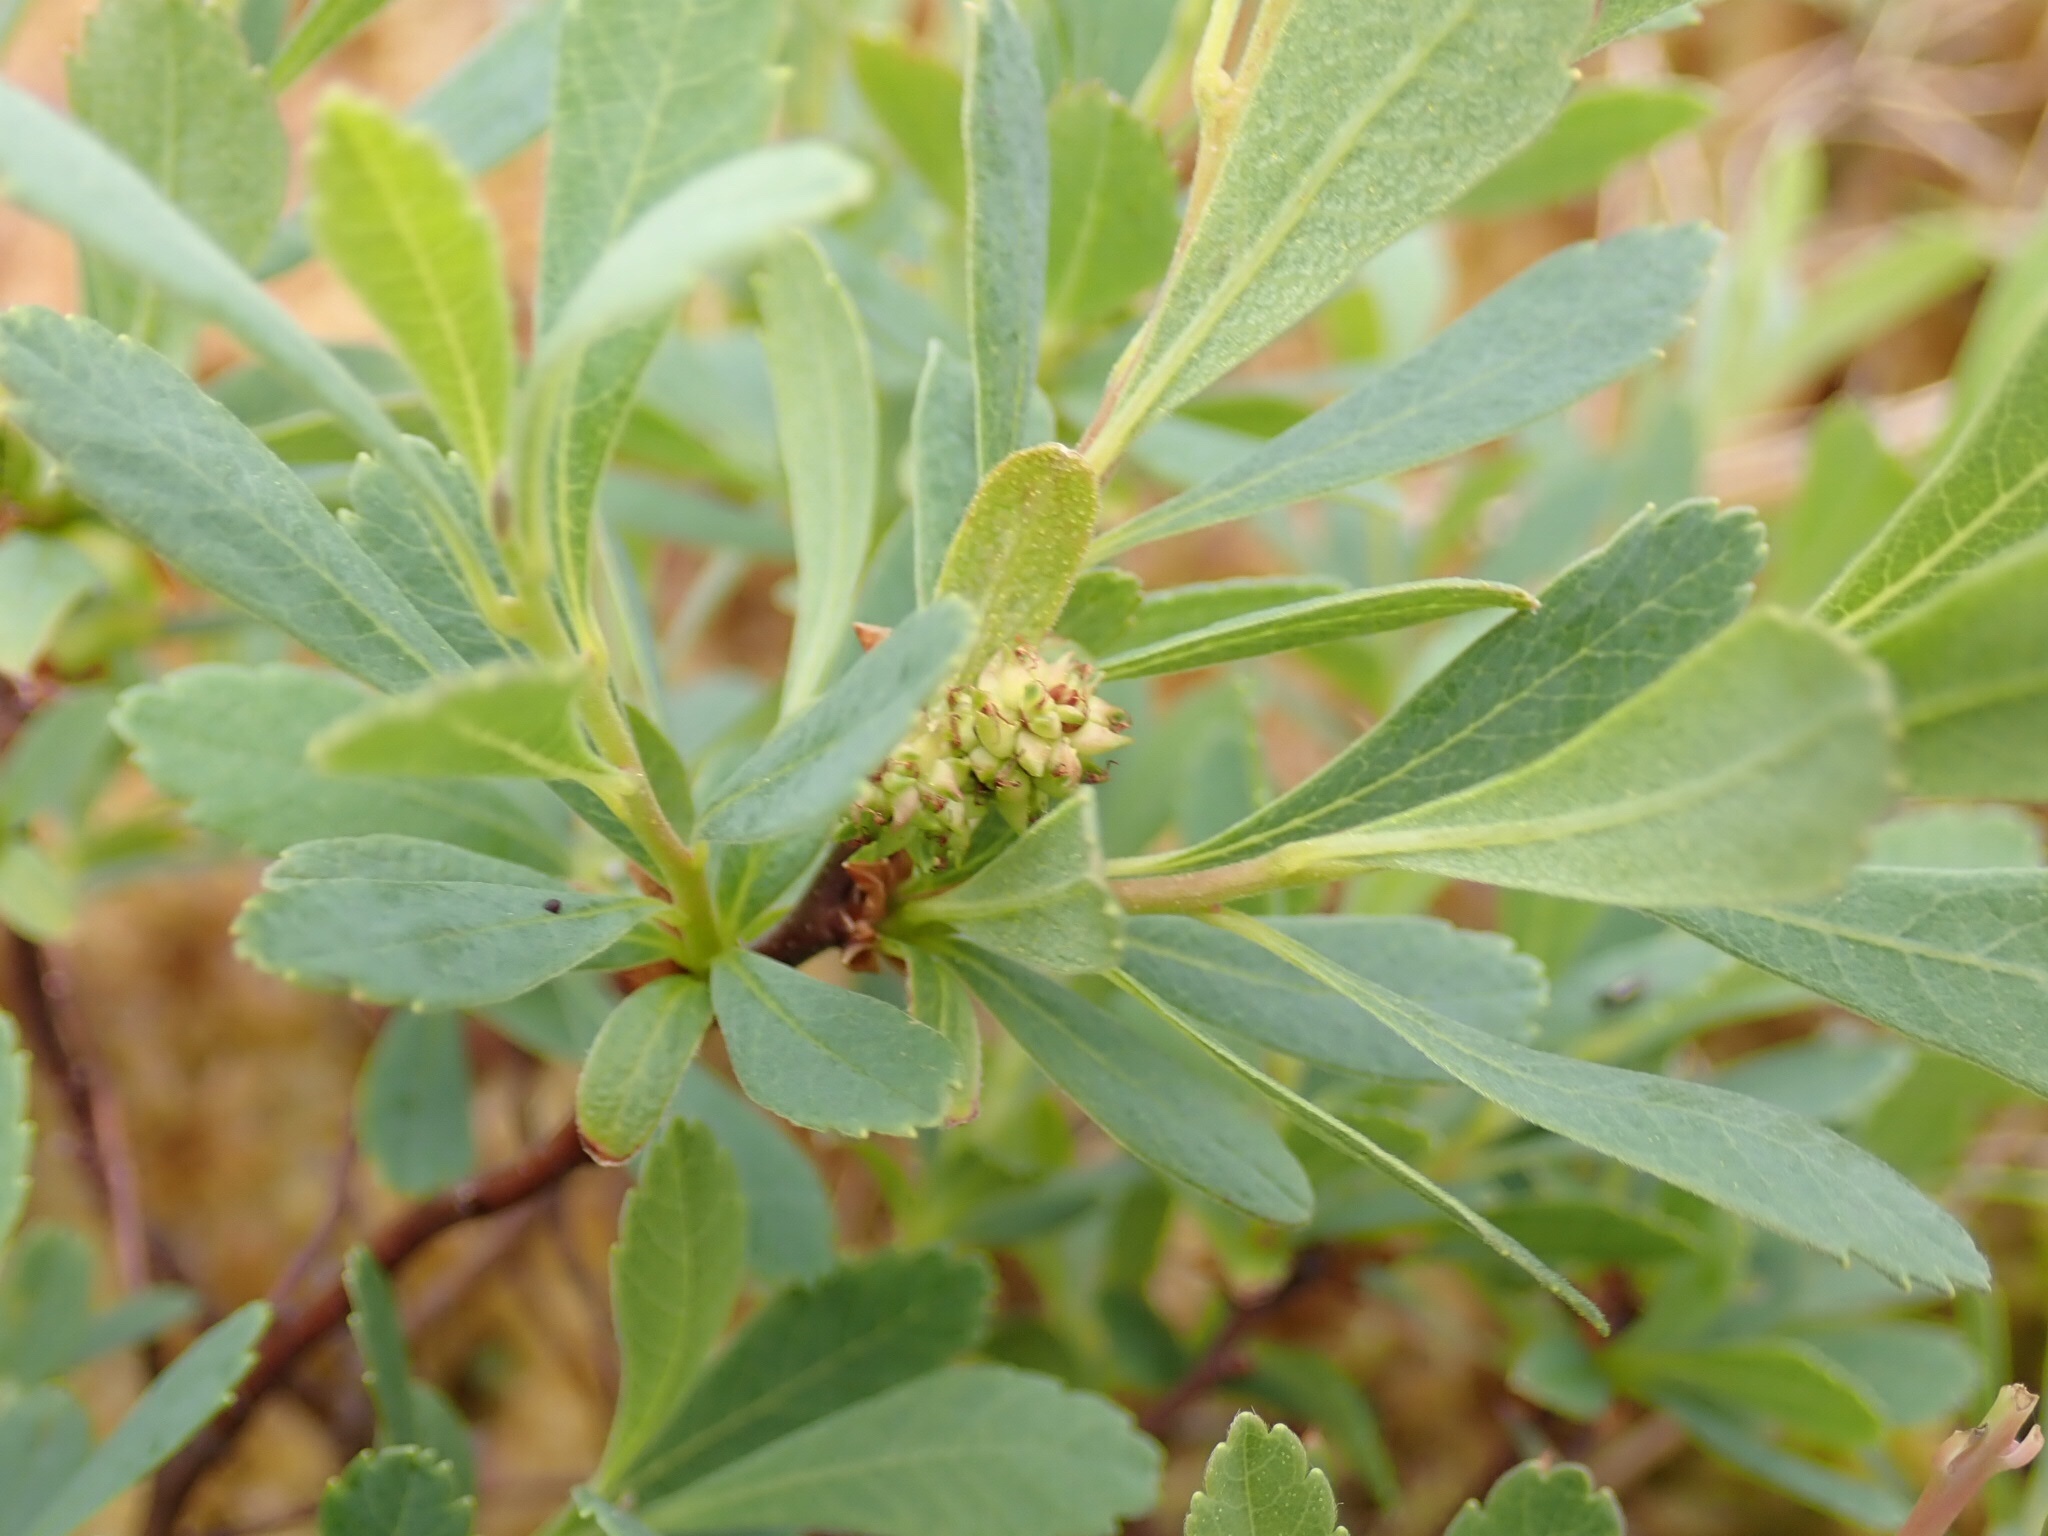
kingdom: Plantae
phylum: Tracheophyta
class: Magnoliopsida
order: Fagales
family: Myricaceae
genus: Myrica
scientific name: Myrica gale
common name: Sweet gale
